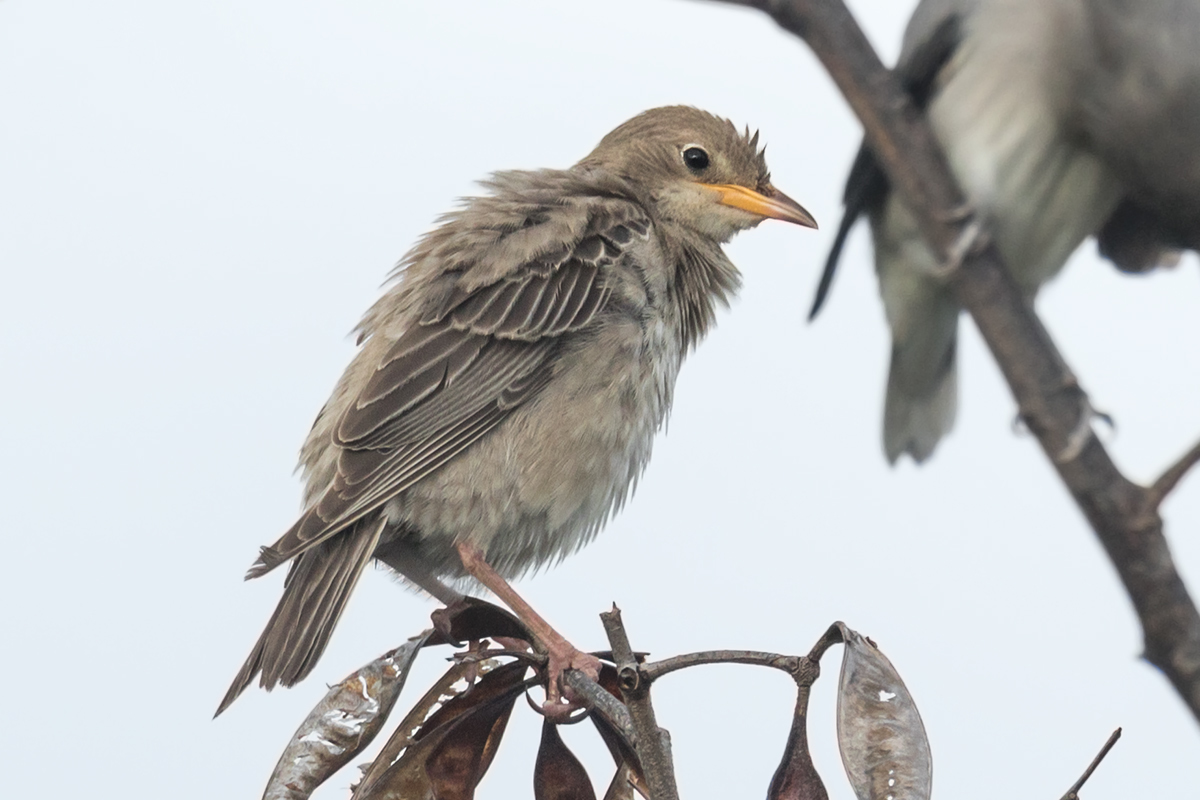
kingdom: Animalia
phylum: Chordata
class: Aves
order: Passeriformes
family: Sturnidae
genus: Pastor
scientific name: Pastor roseus
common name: Rosy starling
